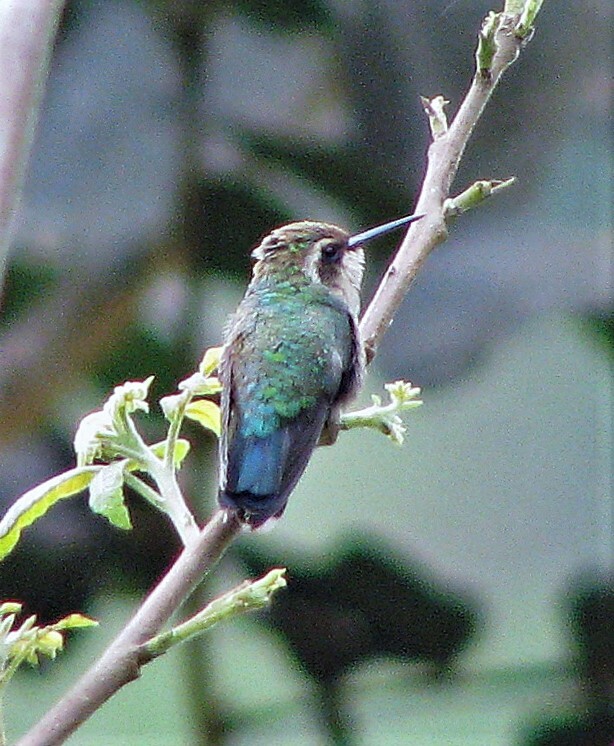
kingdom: Animalia
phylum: Chordata
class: Aves
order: Apodiformes
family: Trochilidae
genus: Chlorostilbon
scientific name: Chlorostilbon lucidus
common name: Glittering-bellied emerald
